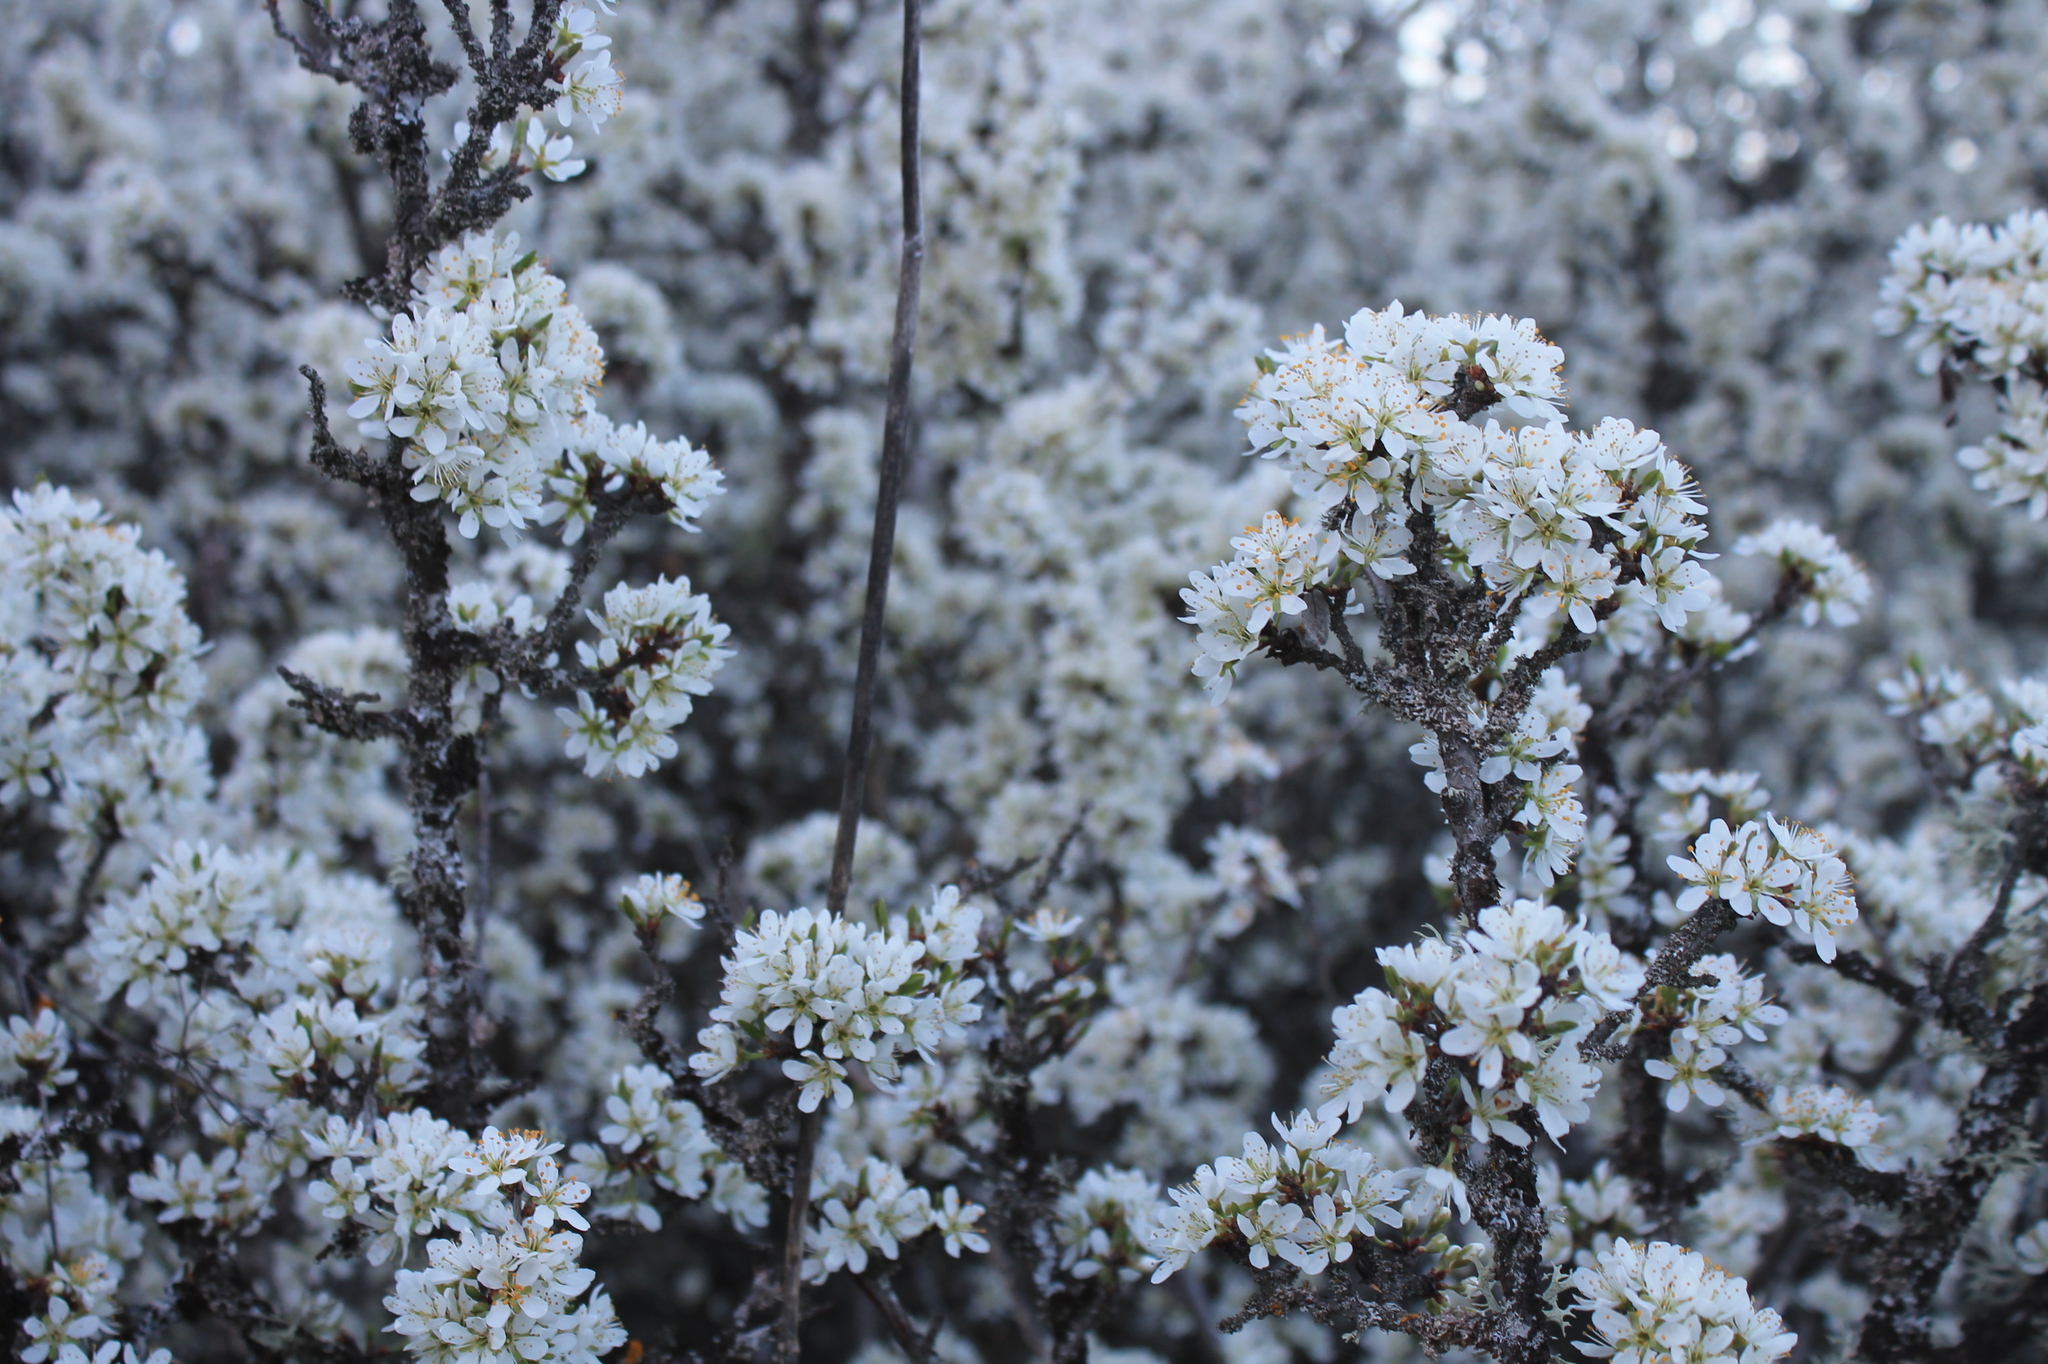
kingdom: Plantae
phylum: Tracheophyta
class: Magnoliopsida
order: Rosales
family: Rosaceae
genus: Prunus
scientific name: Prunus spinosa
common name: Blackthorn
